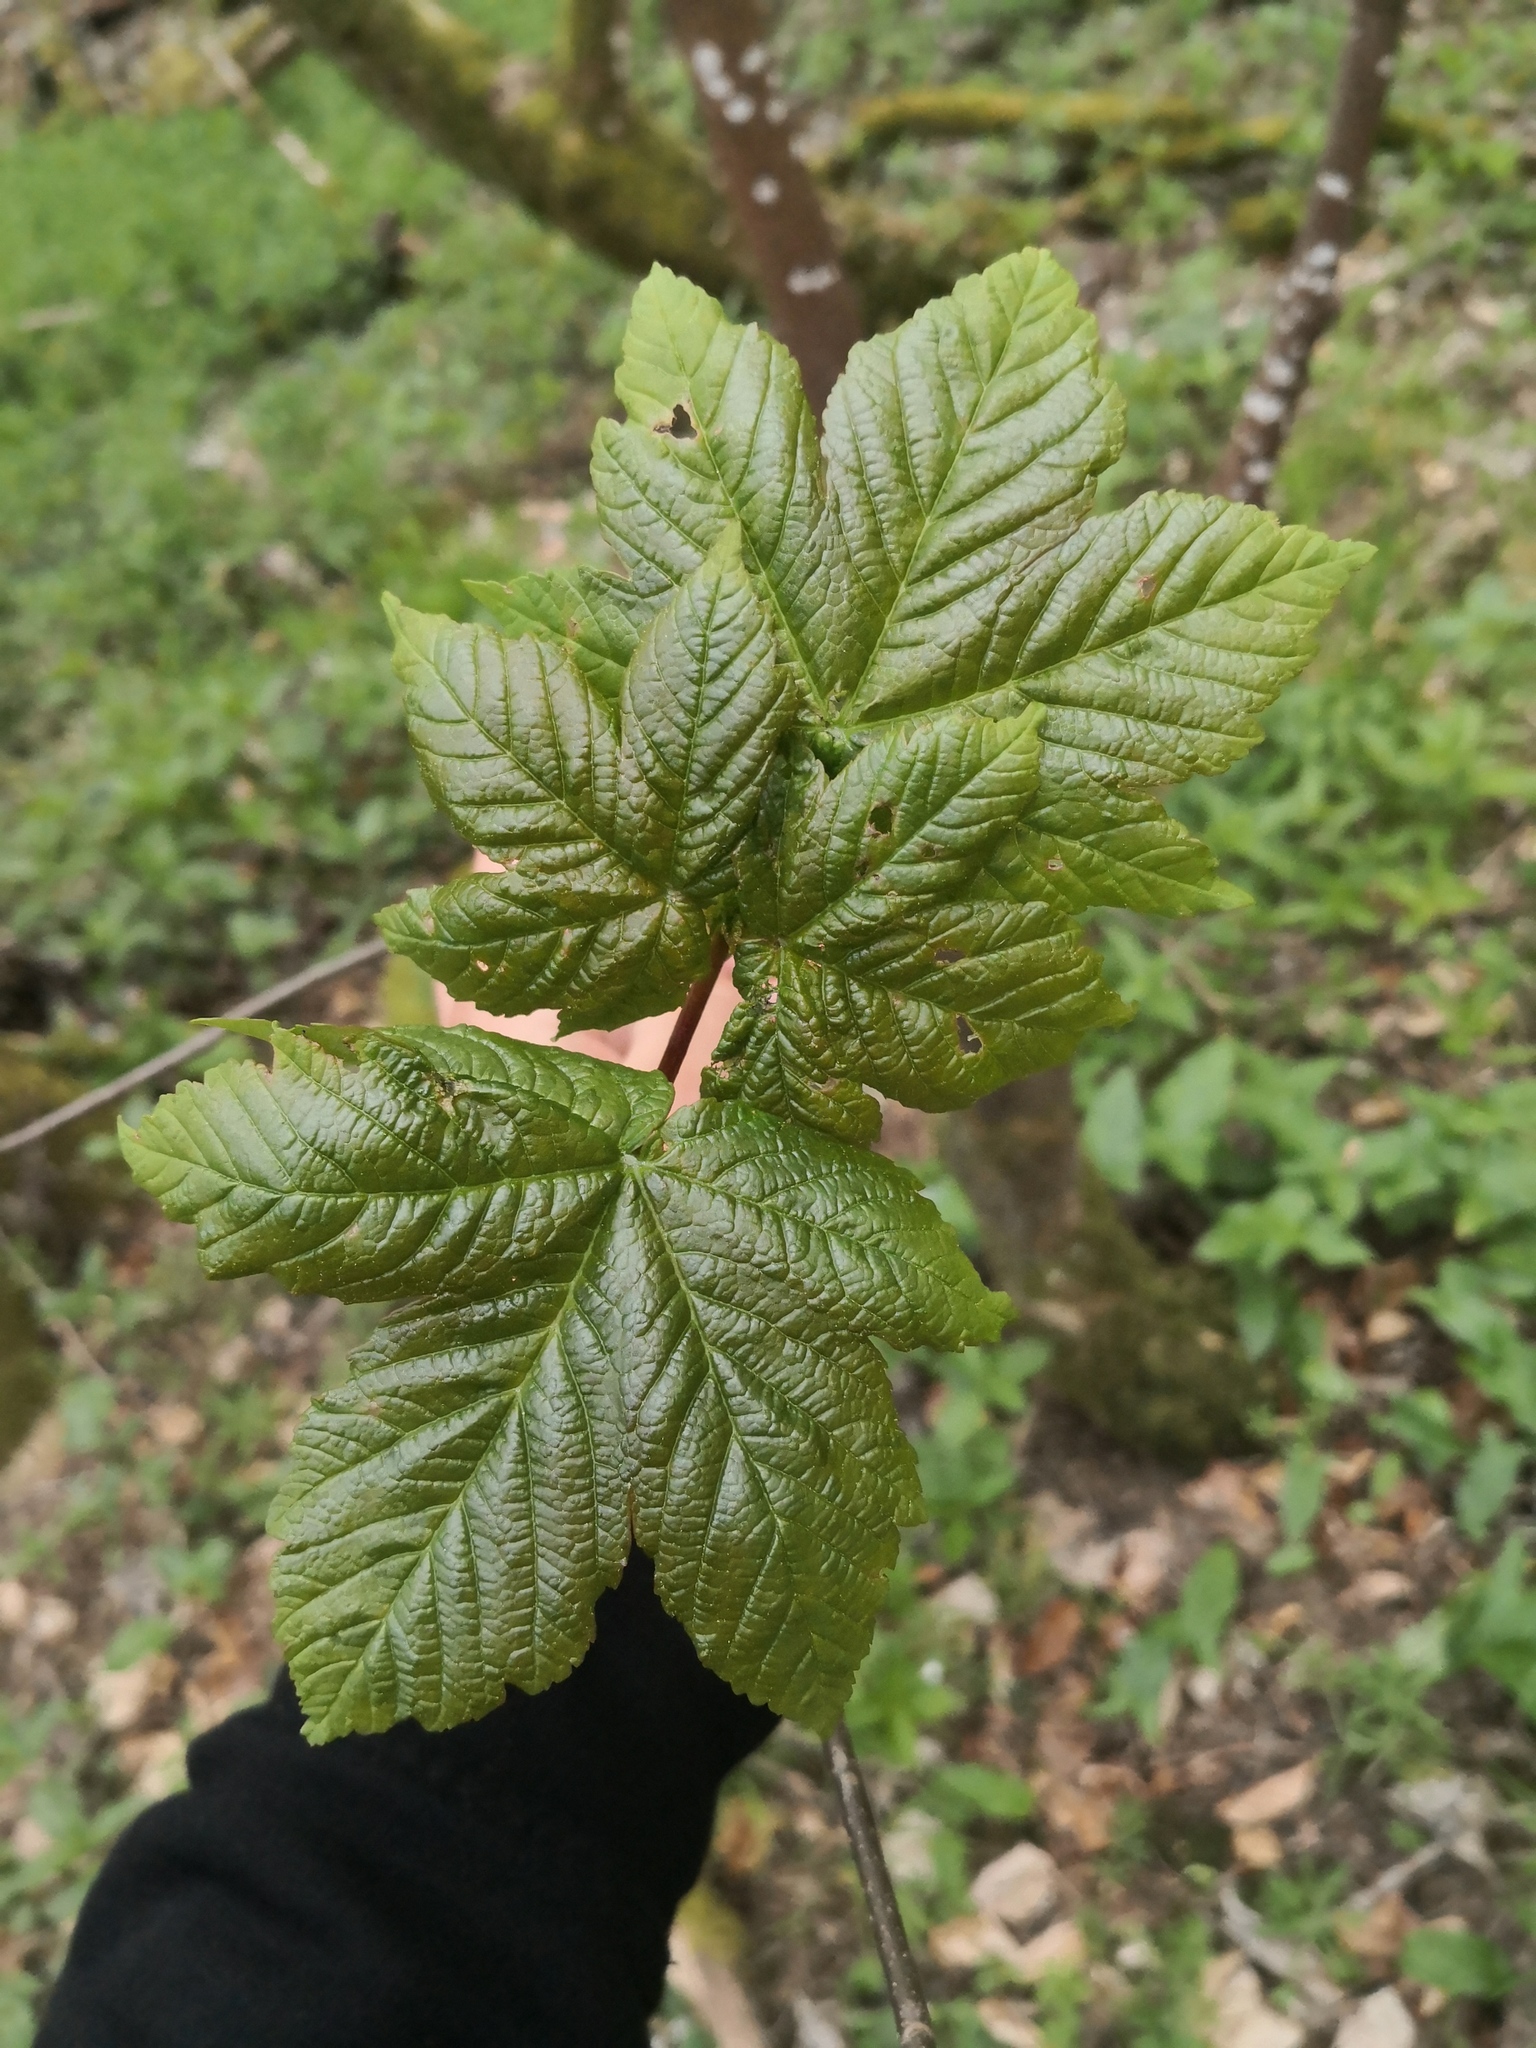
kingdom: Plantae
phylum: Tracheophyta
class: Magnoliopsida
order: Sapindales
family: Sapindaceae
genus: Acer
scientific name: Acer pseudoplatanus
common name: Sycamore
